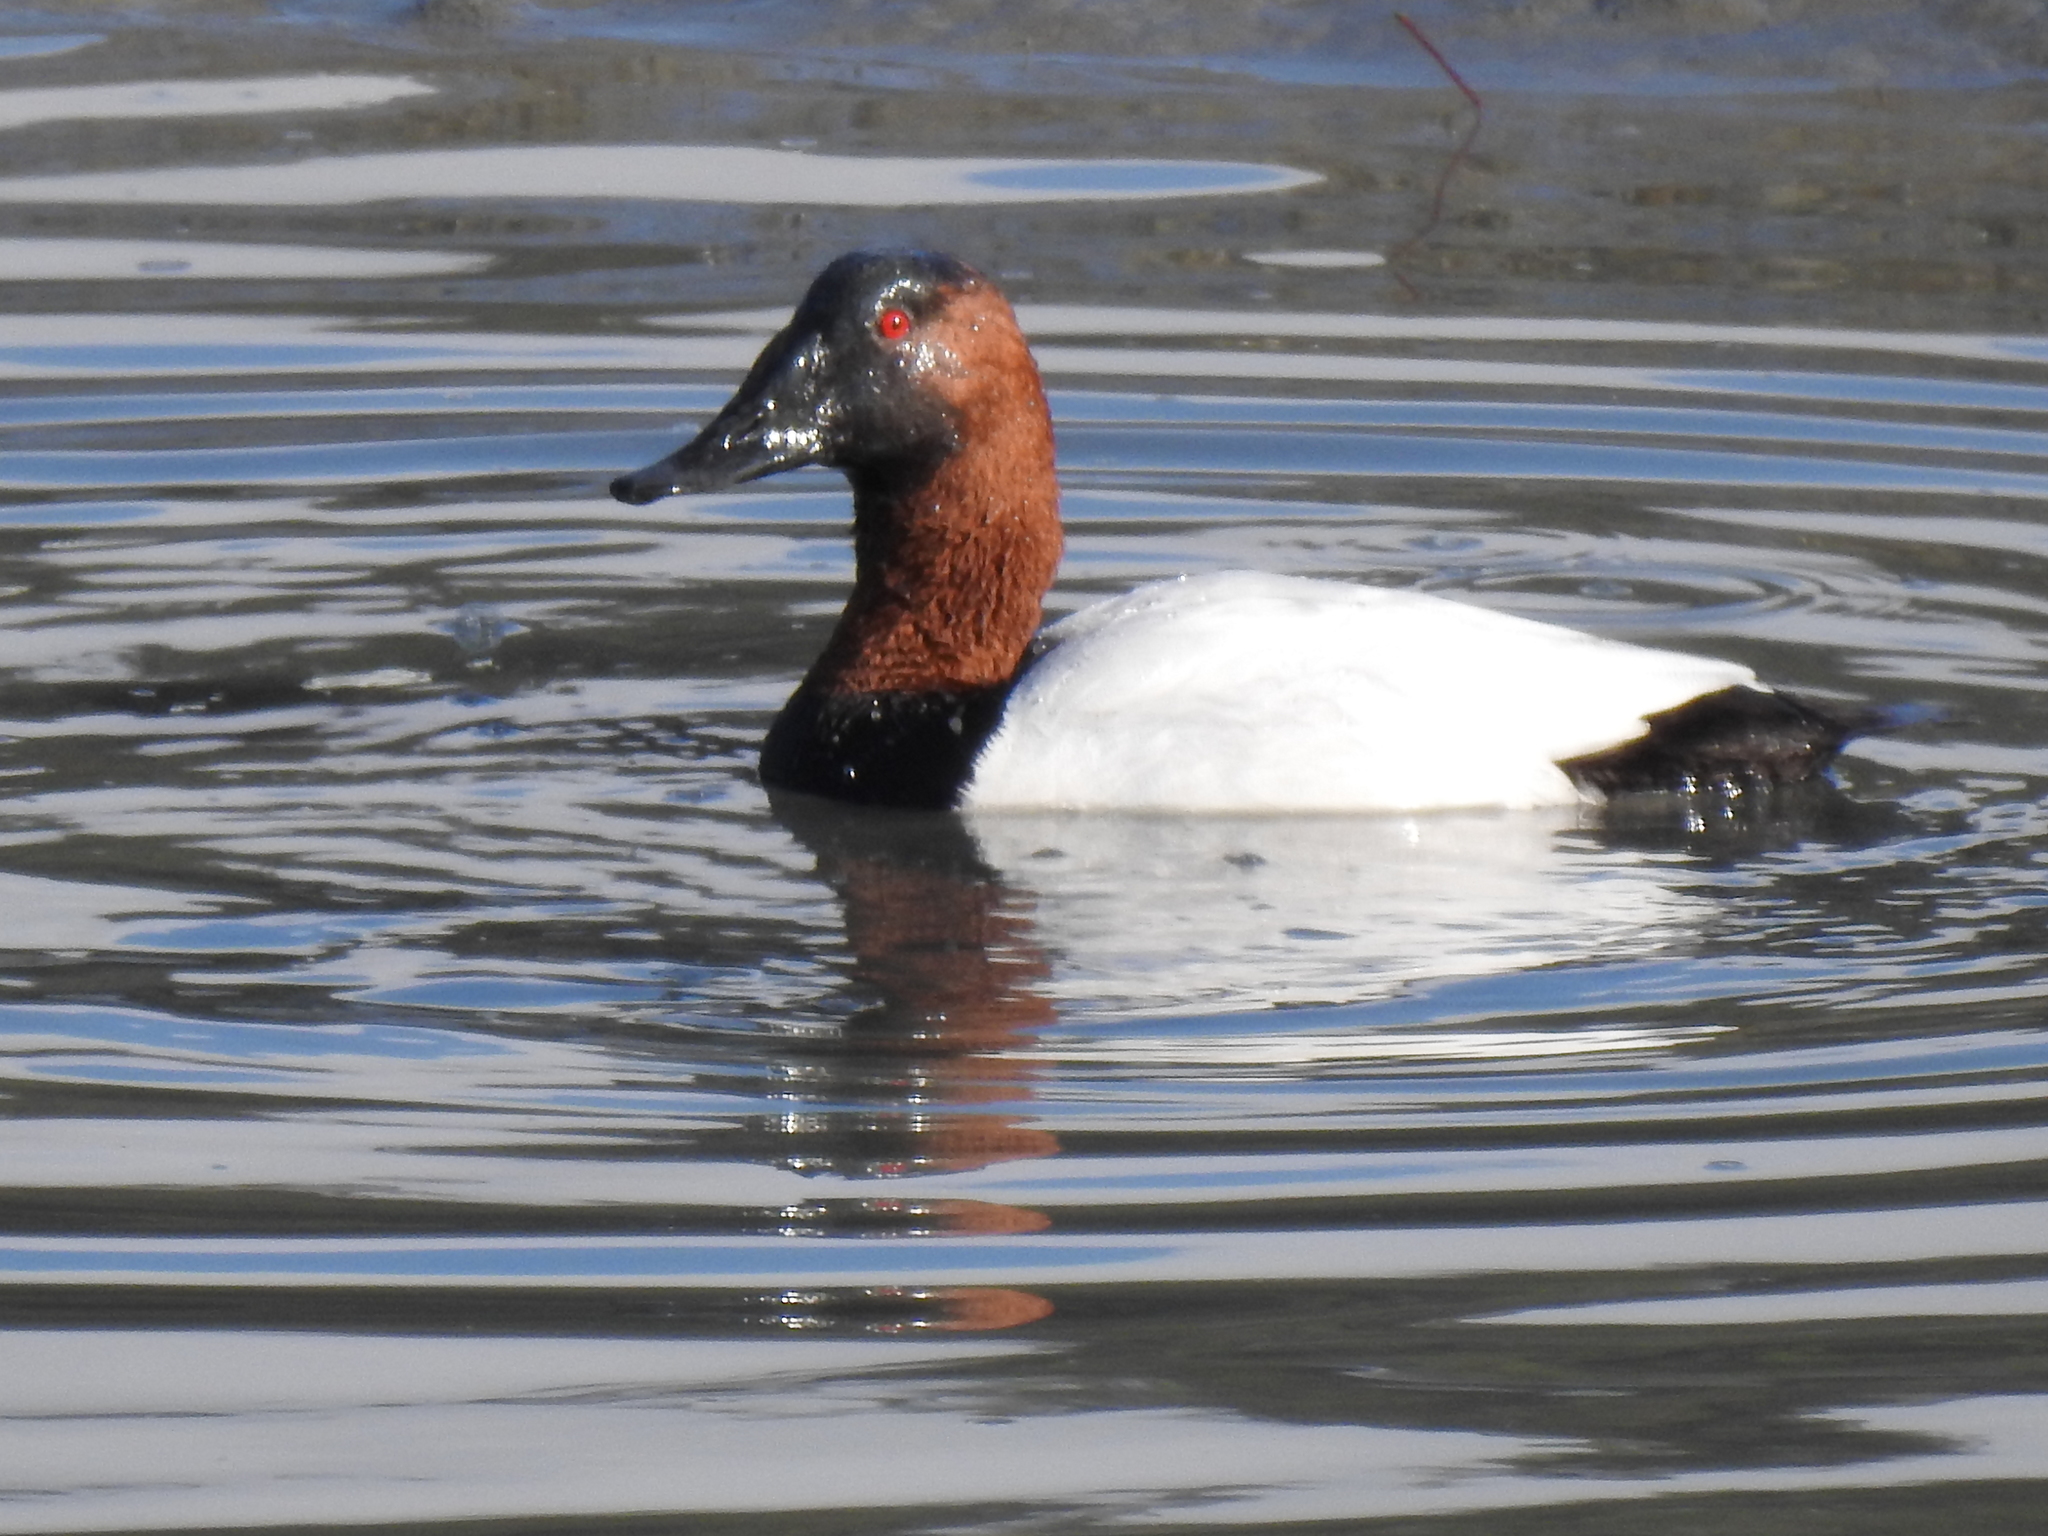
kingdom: Animalia
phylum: Chordata
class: Aves
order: Anseriformes
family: Anatidae
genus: Aythya
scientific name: Aythya valisineria
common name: Canvasback
